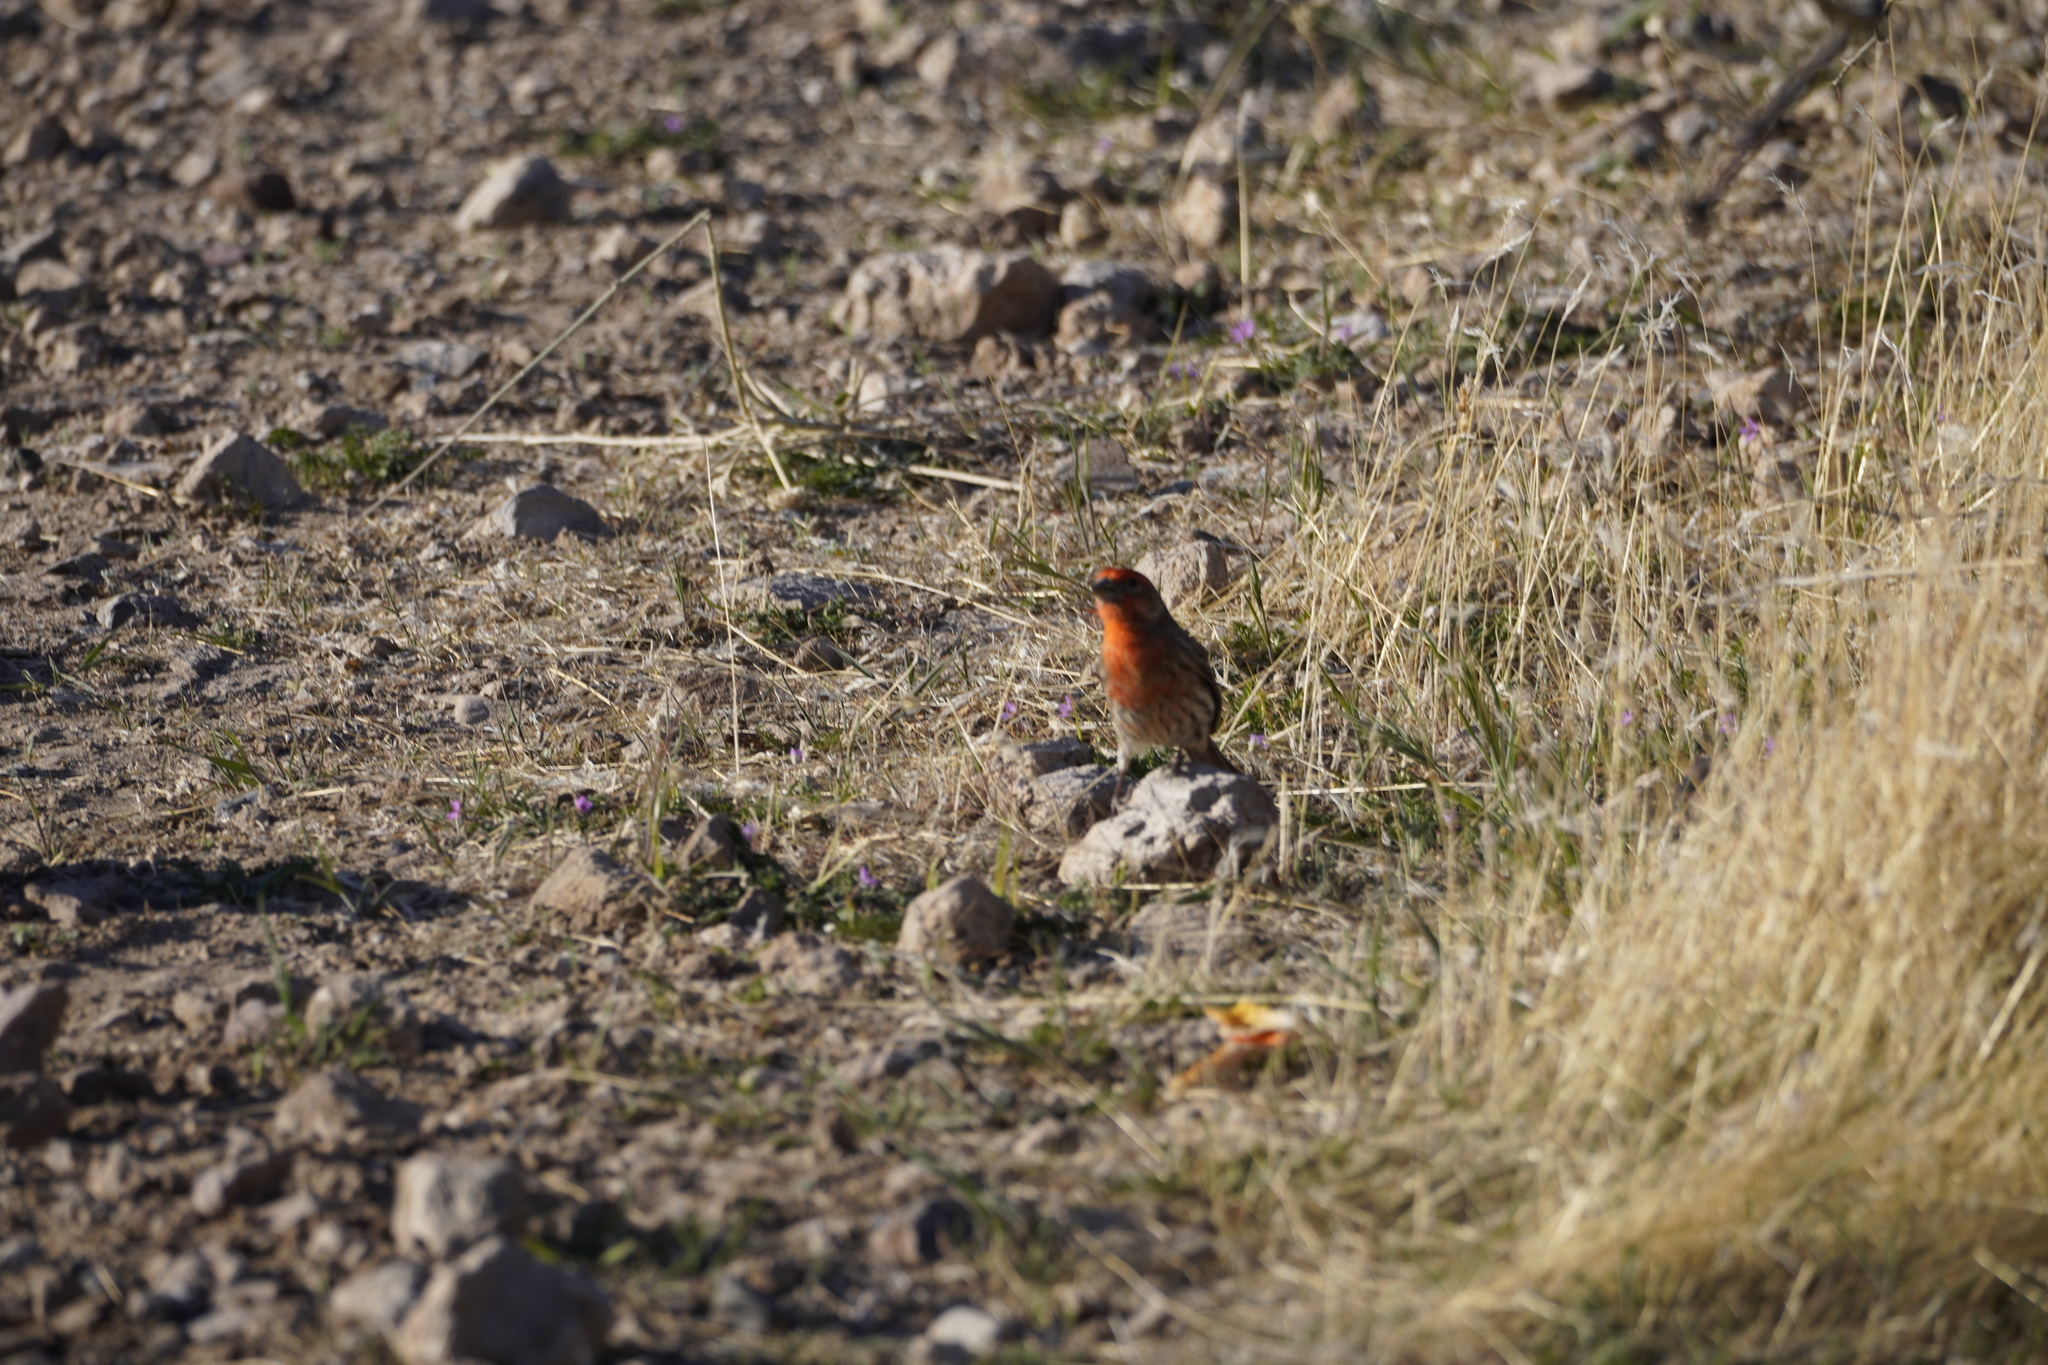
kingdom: Animalia
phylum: Chordata
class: Aves
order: Passeriformes
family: Fringillidae
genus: Haemorhous
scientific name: Haemorhous mexicanus
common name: House finch
